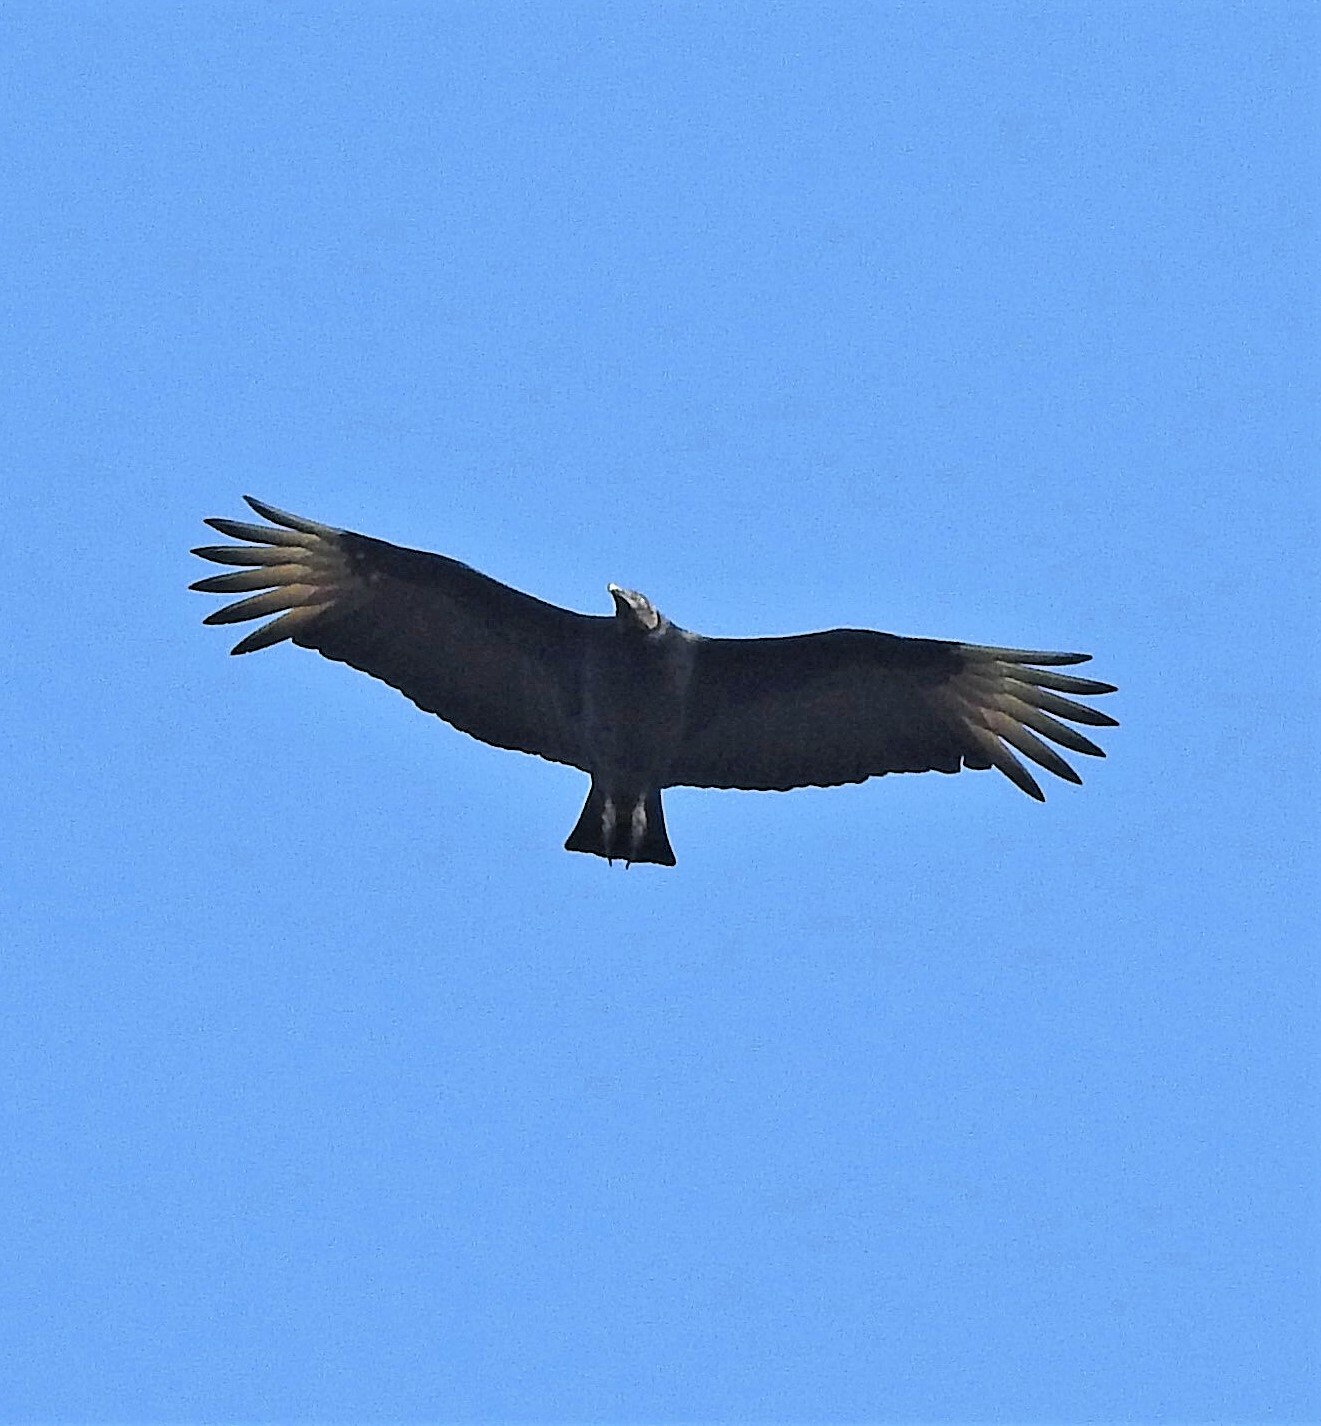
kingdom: Animalia
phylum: Chordata
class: Aves
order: Accipitriformes
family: Cathartidae
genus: Coragyps
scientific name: Coragyps atratus
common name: Black vulture
